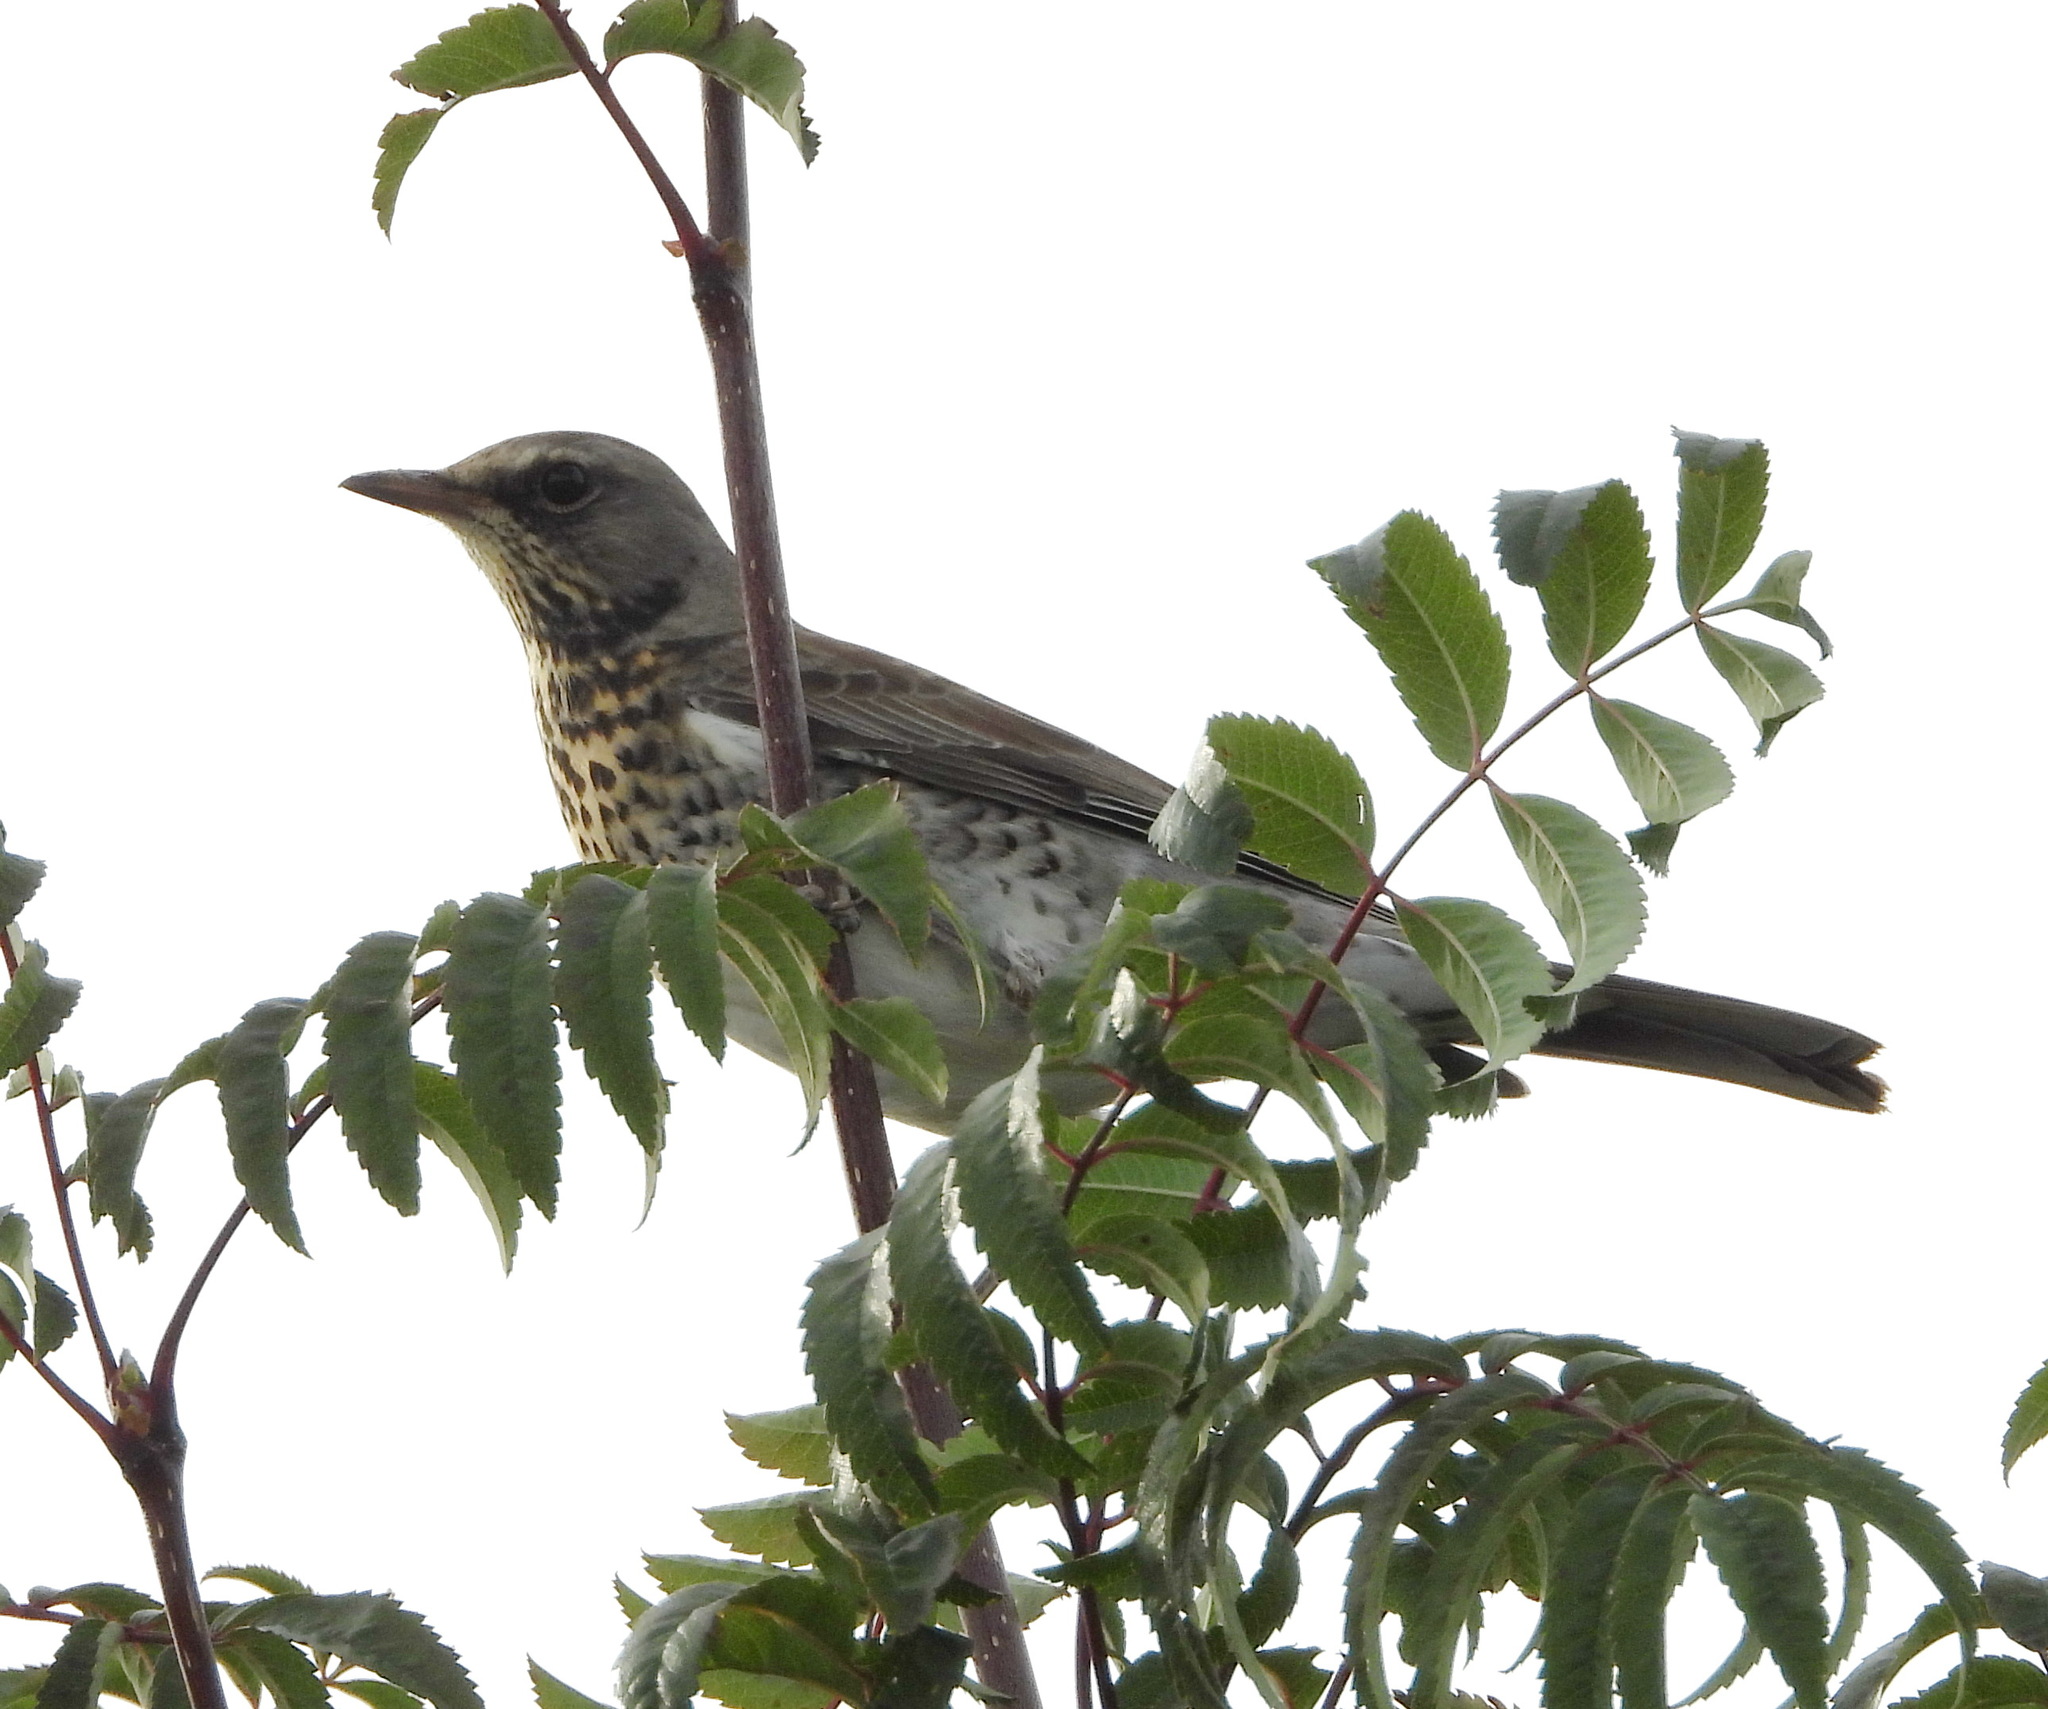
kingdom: Animalia
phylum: Chordata
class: Aves
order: Passeriformes
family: Turdidae
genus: Turdus
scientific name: Turdus pilaris
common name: Fieldfare
